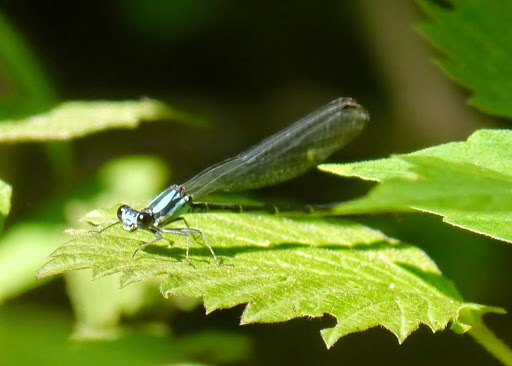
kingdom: Animalia
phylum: Arthropoda
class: Insecta
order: Odonata
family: Coenagrionidae
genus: Argia
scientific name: Argia tibialis
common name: Blue-tipped dancer
